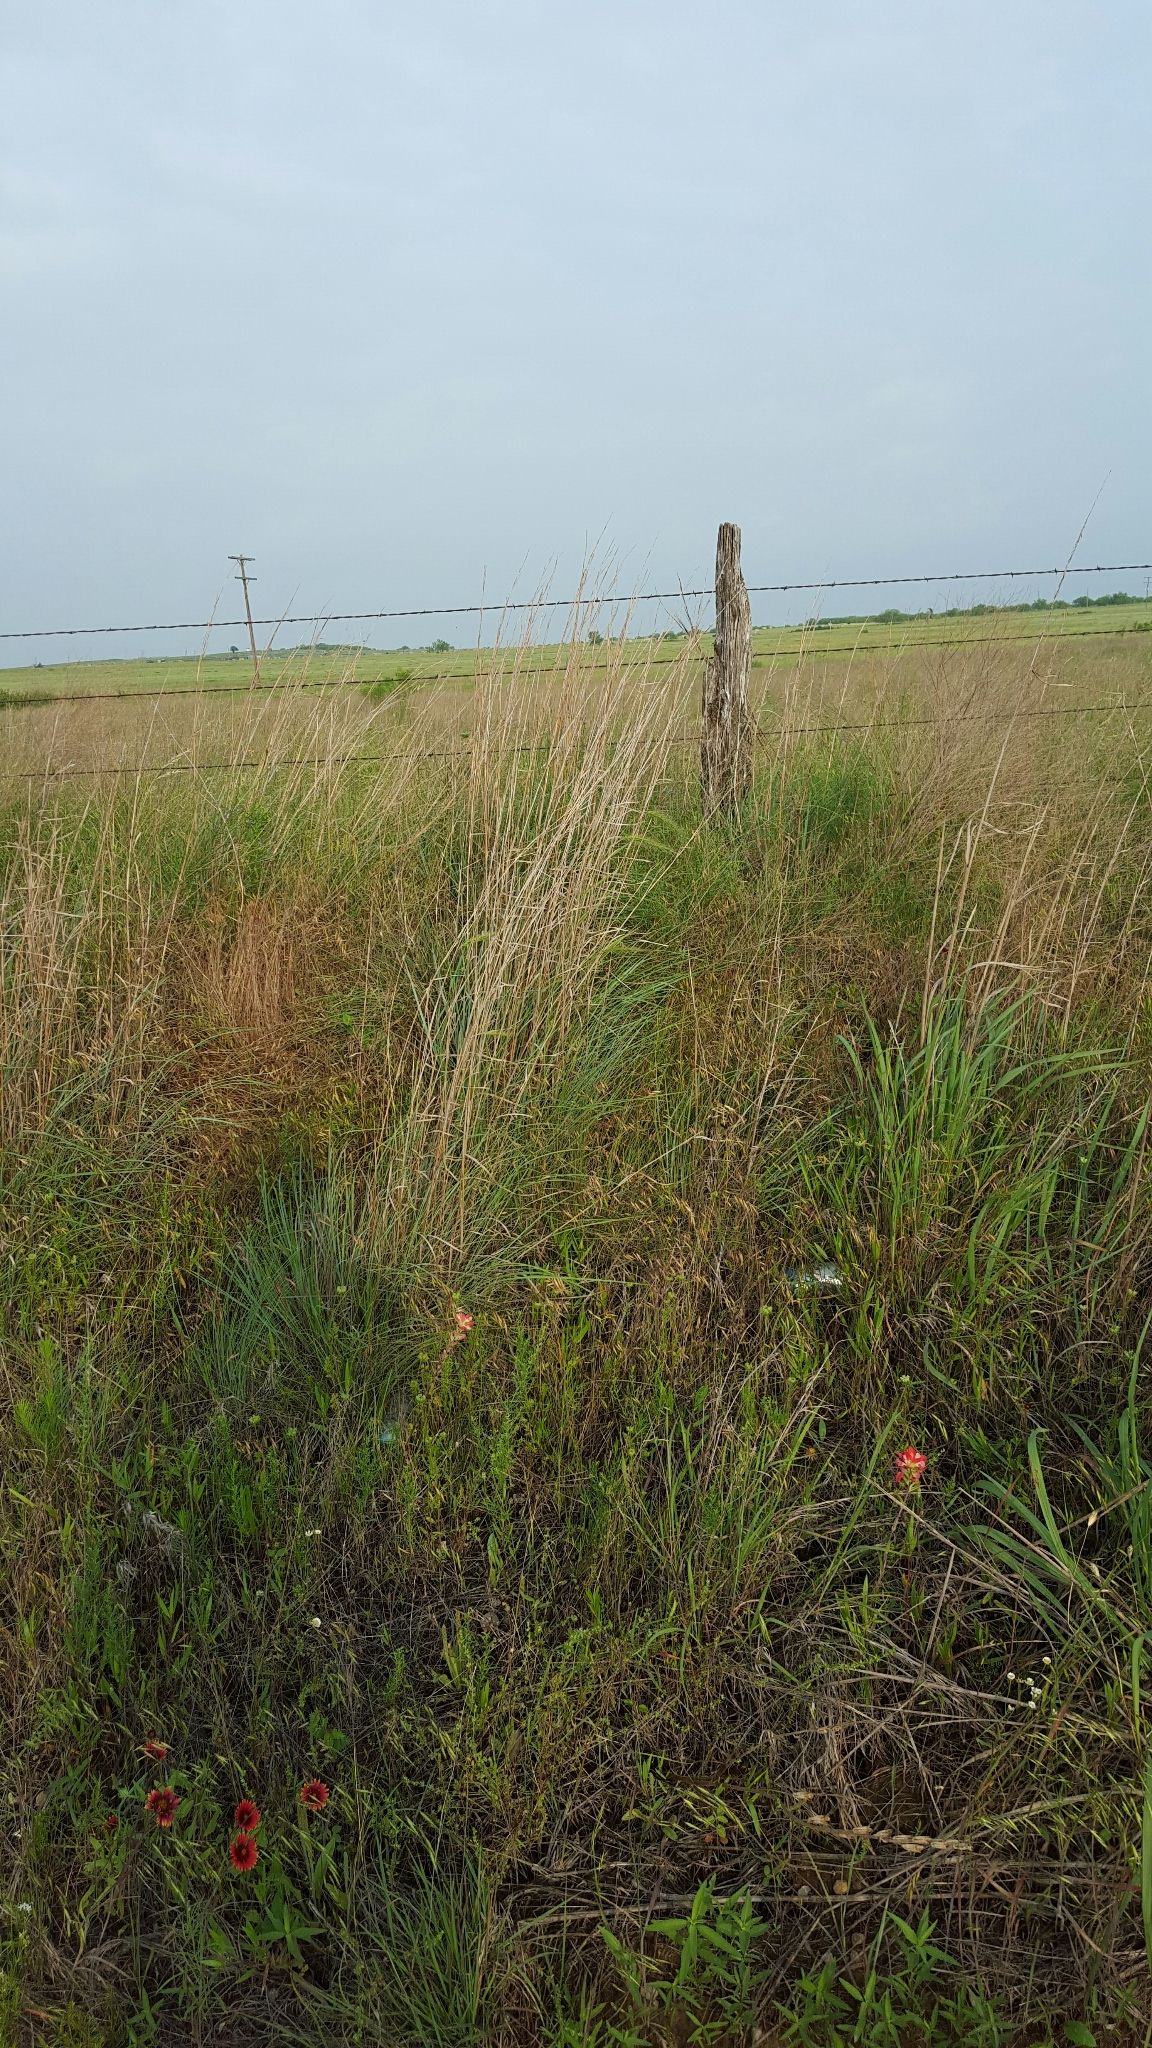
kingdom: Plantae
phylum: Tracheophyta
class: Liliopsida
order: Poales
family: Poaceae
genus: Schizachyrium
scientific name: Schizachyrium scoparium
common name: Little bluestem
